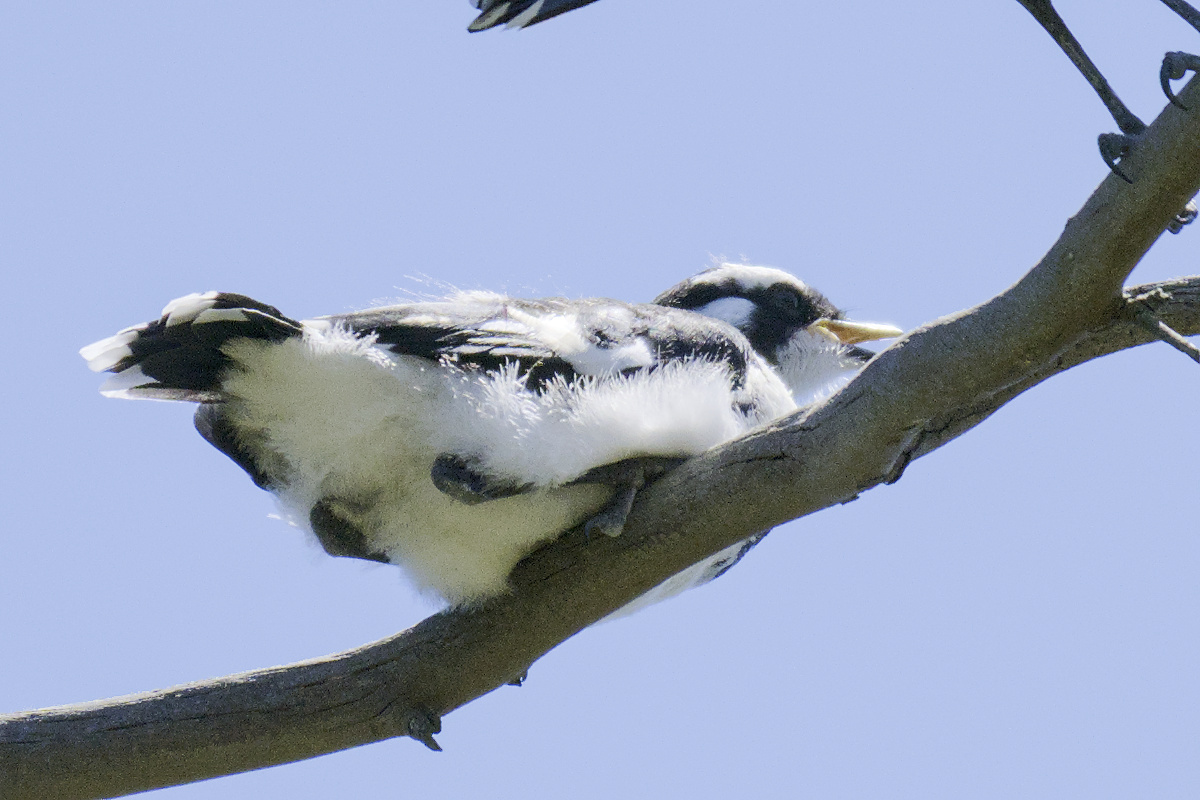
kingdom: Animalia
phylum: Chordata
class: Aves
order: Passeriformes
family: Monarchidae
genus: Grallina
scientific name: Grallina cyanoleuca
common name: Magpie-lark
